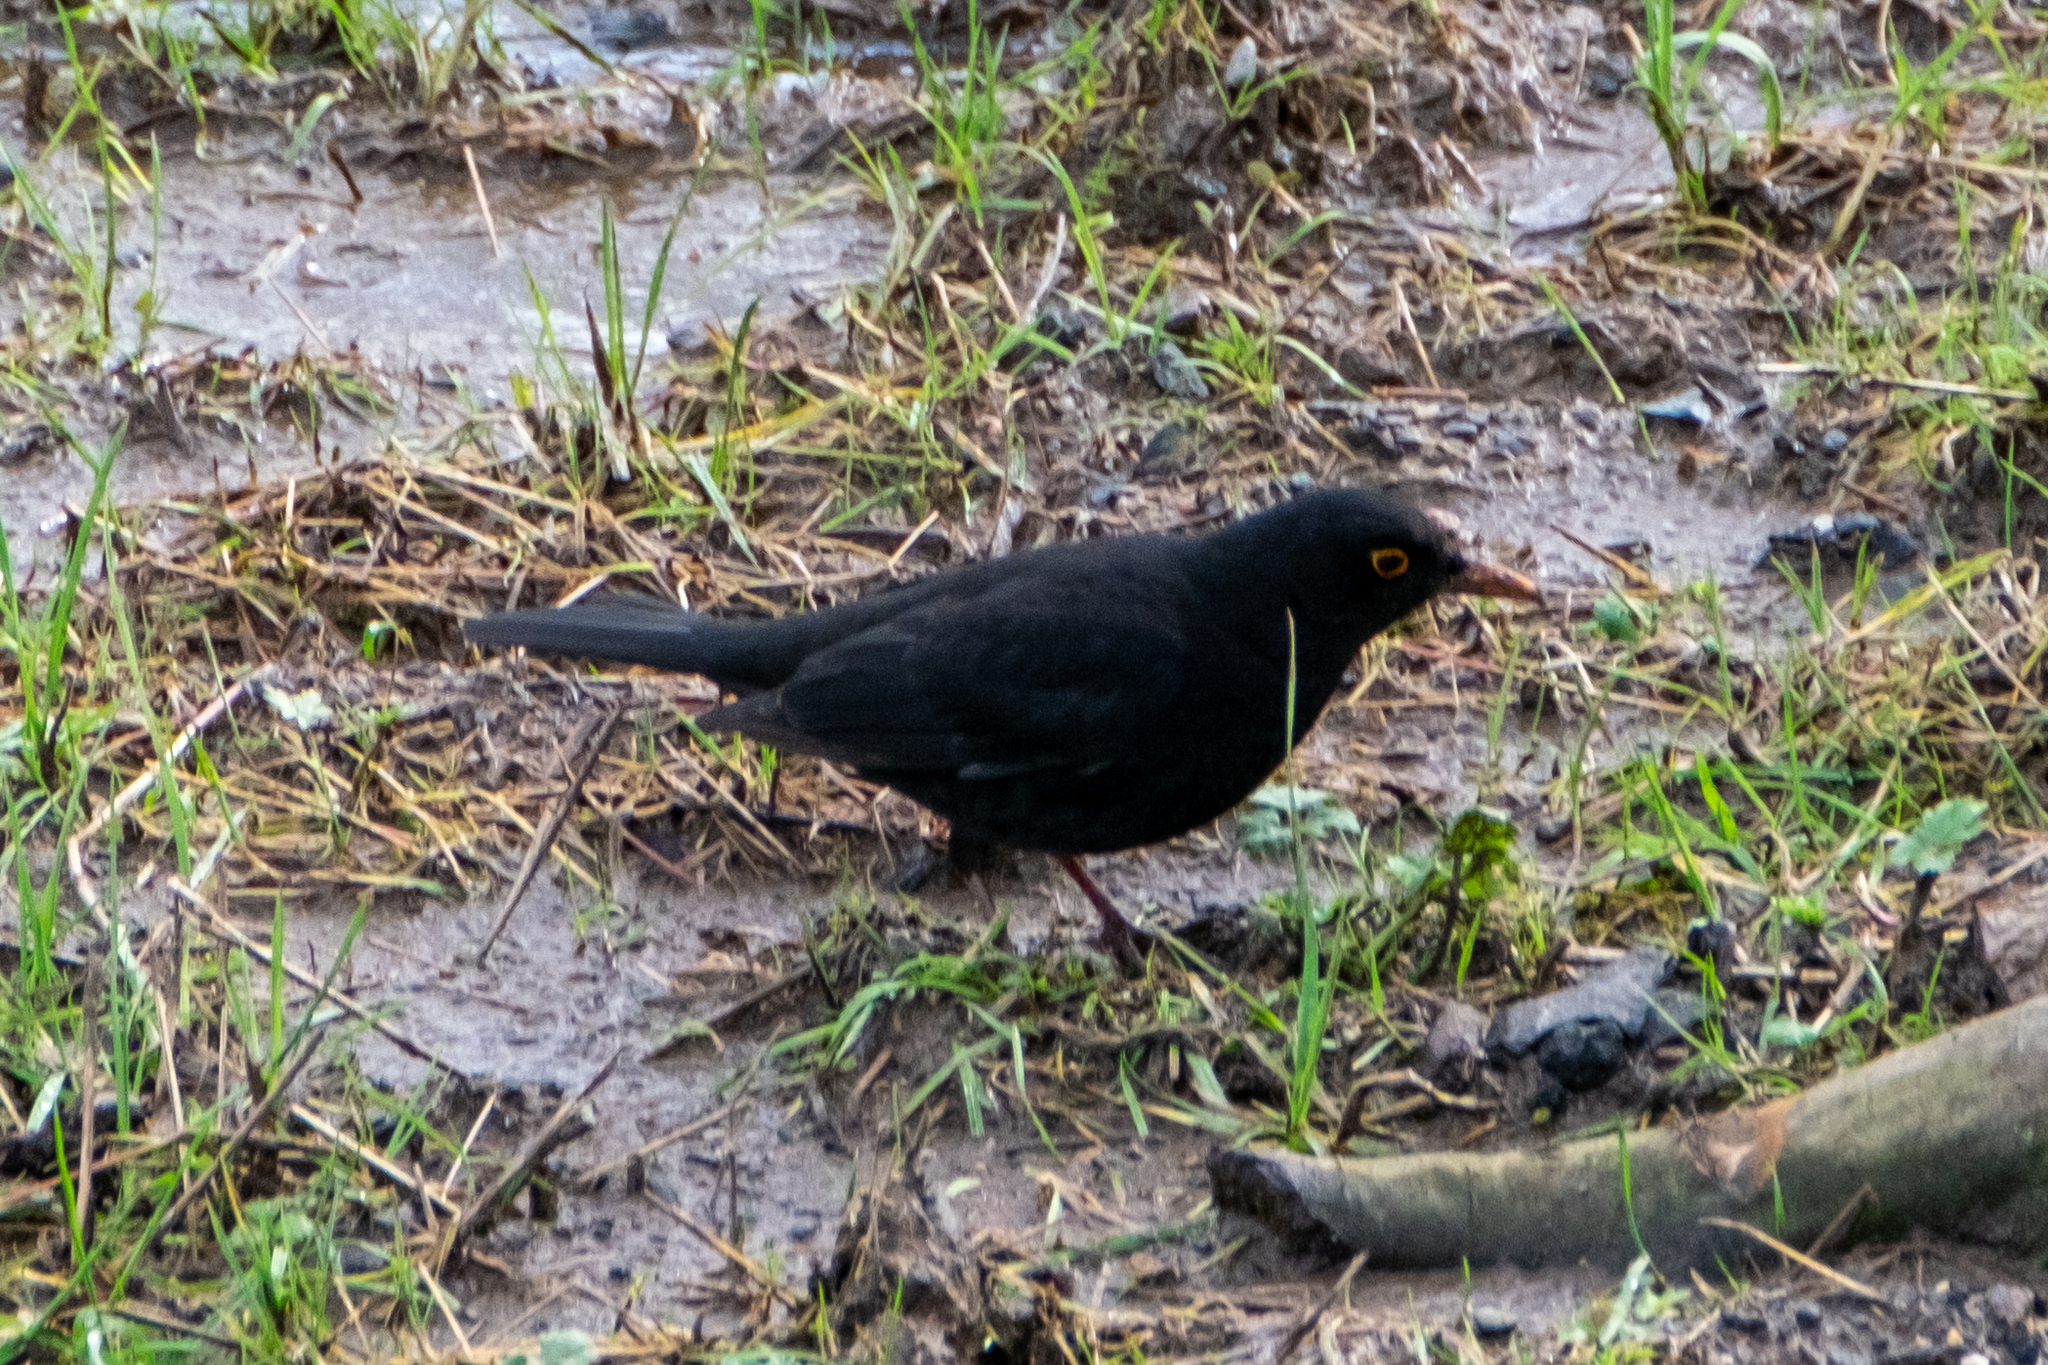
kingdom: Animalia
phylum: Chordata
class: Aves
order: Passeriformes
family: Turdidae
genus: Turdus
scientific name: Turdus merula
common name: Common blackbird
